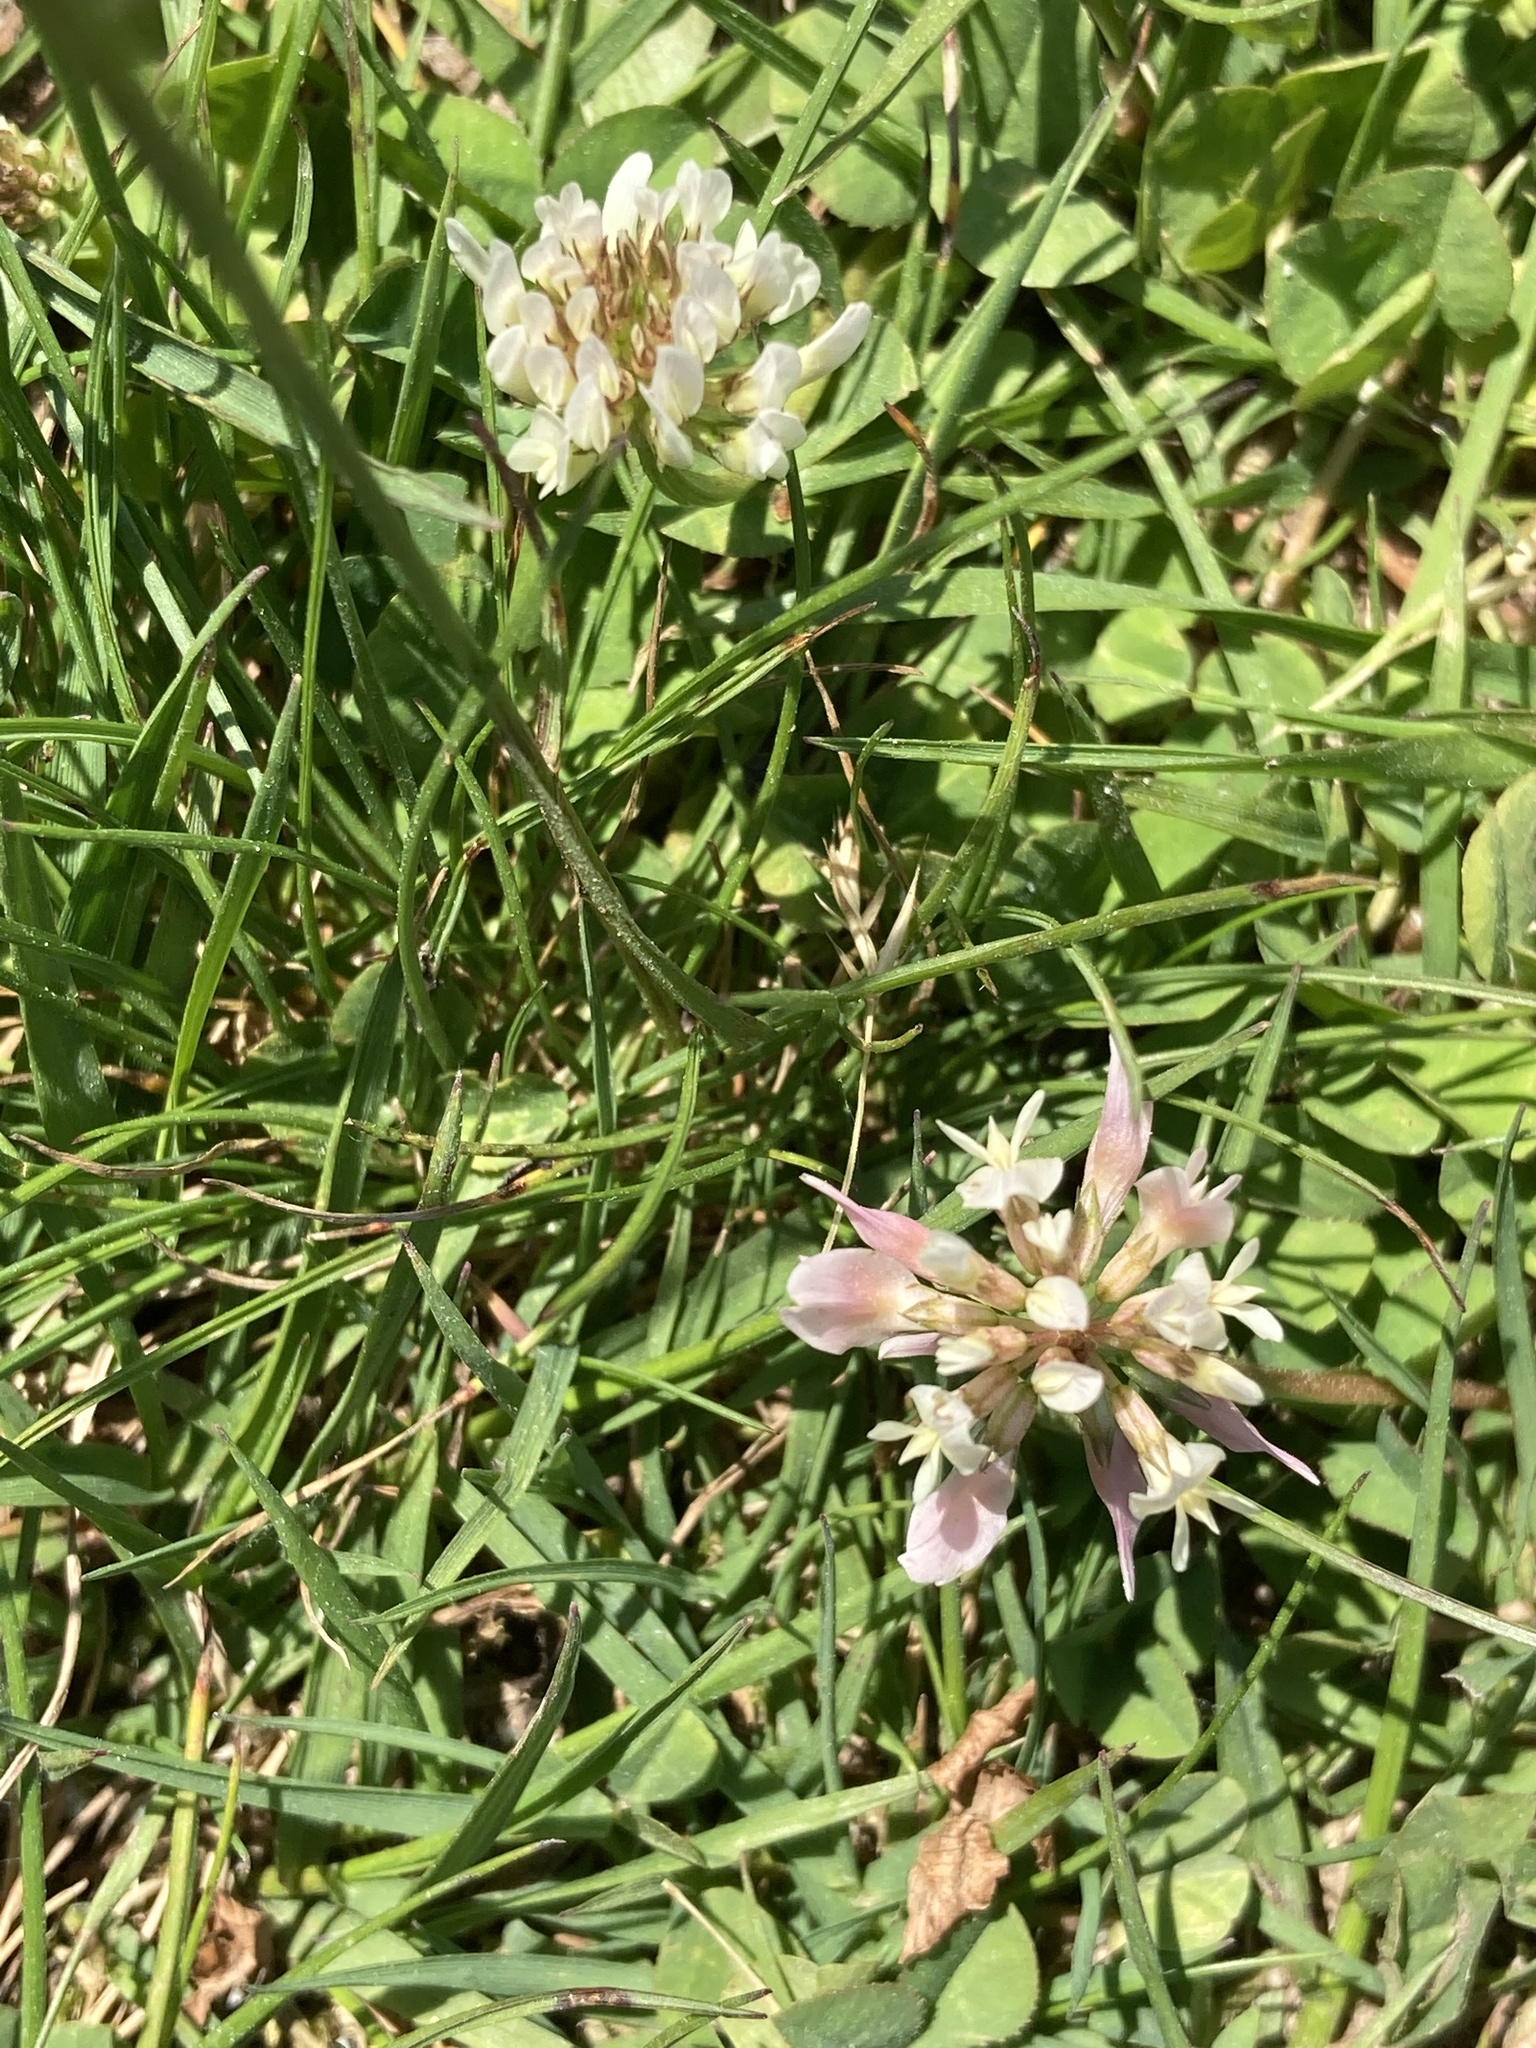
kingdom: Plantae
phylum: Tracheophyta
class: Magnoliopsida
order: Fabales
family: Fabaceae
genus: Trifolium
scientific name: Trifolium repens
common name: White clover
